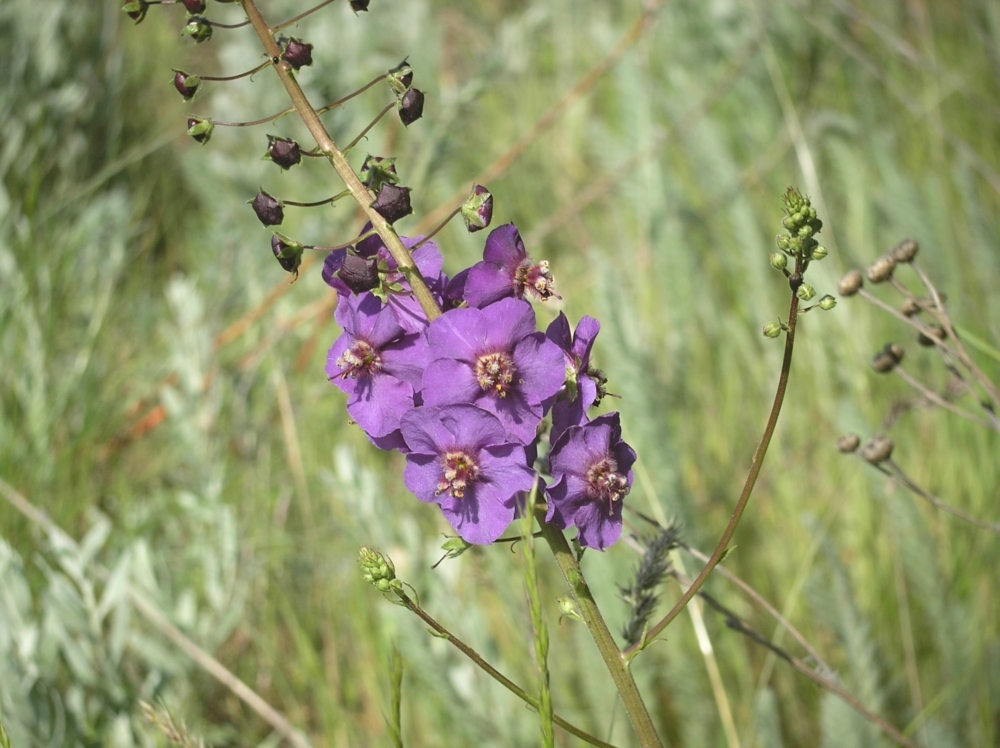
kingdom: Plantae
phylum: Tracheophyta
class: Magnoliopsida
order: Lamiales
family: Scrophulariaceae
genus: Verbascum
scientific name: Verbascum phoeniceum
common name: Purple mullein
